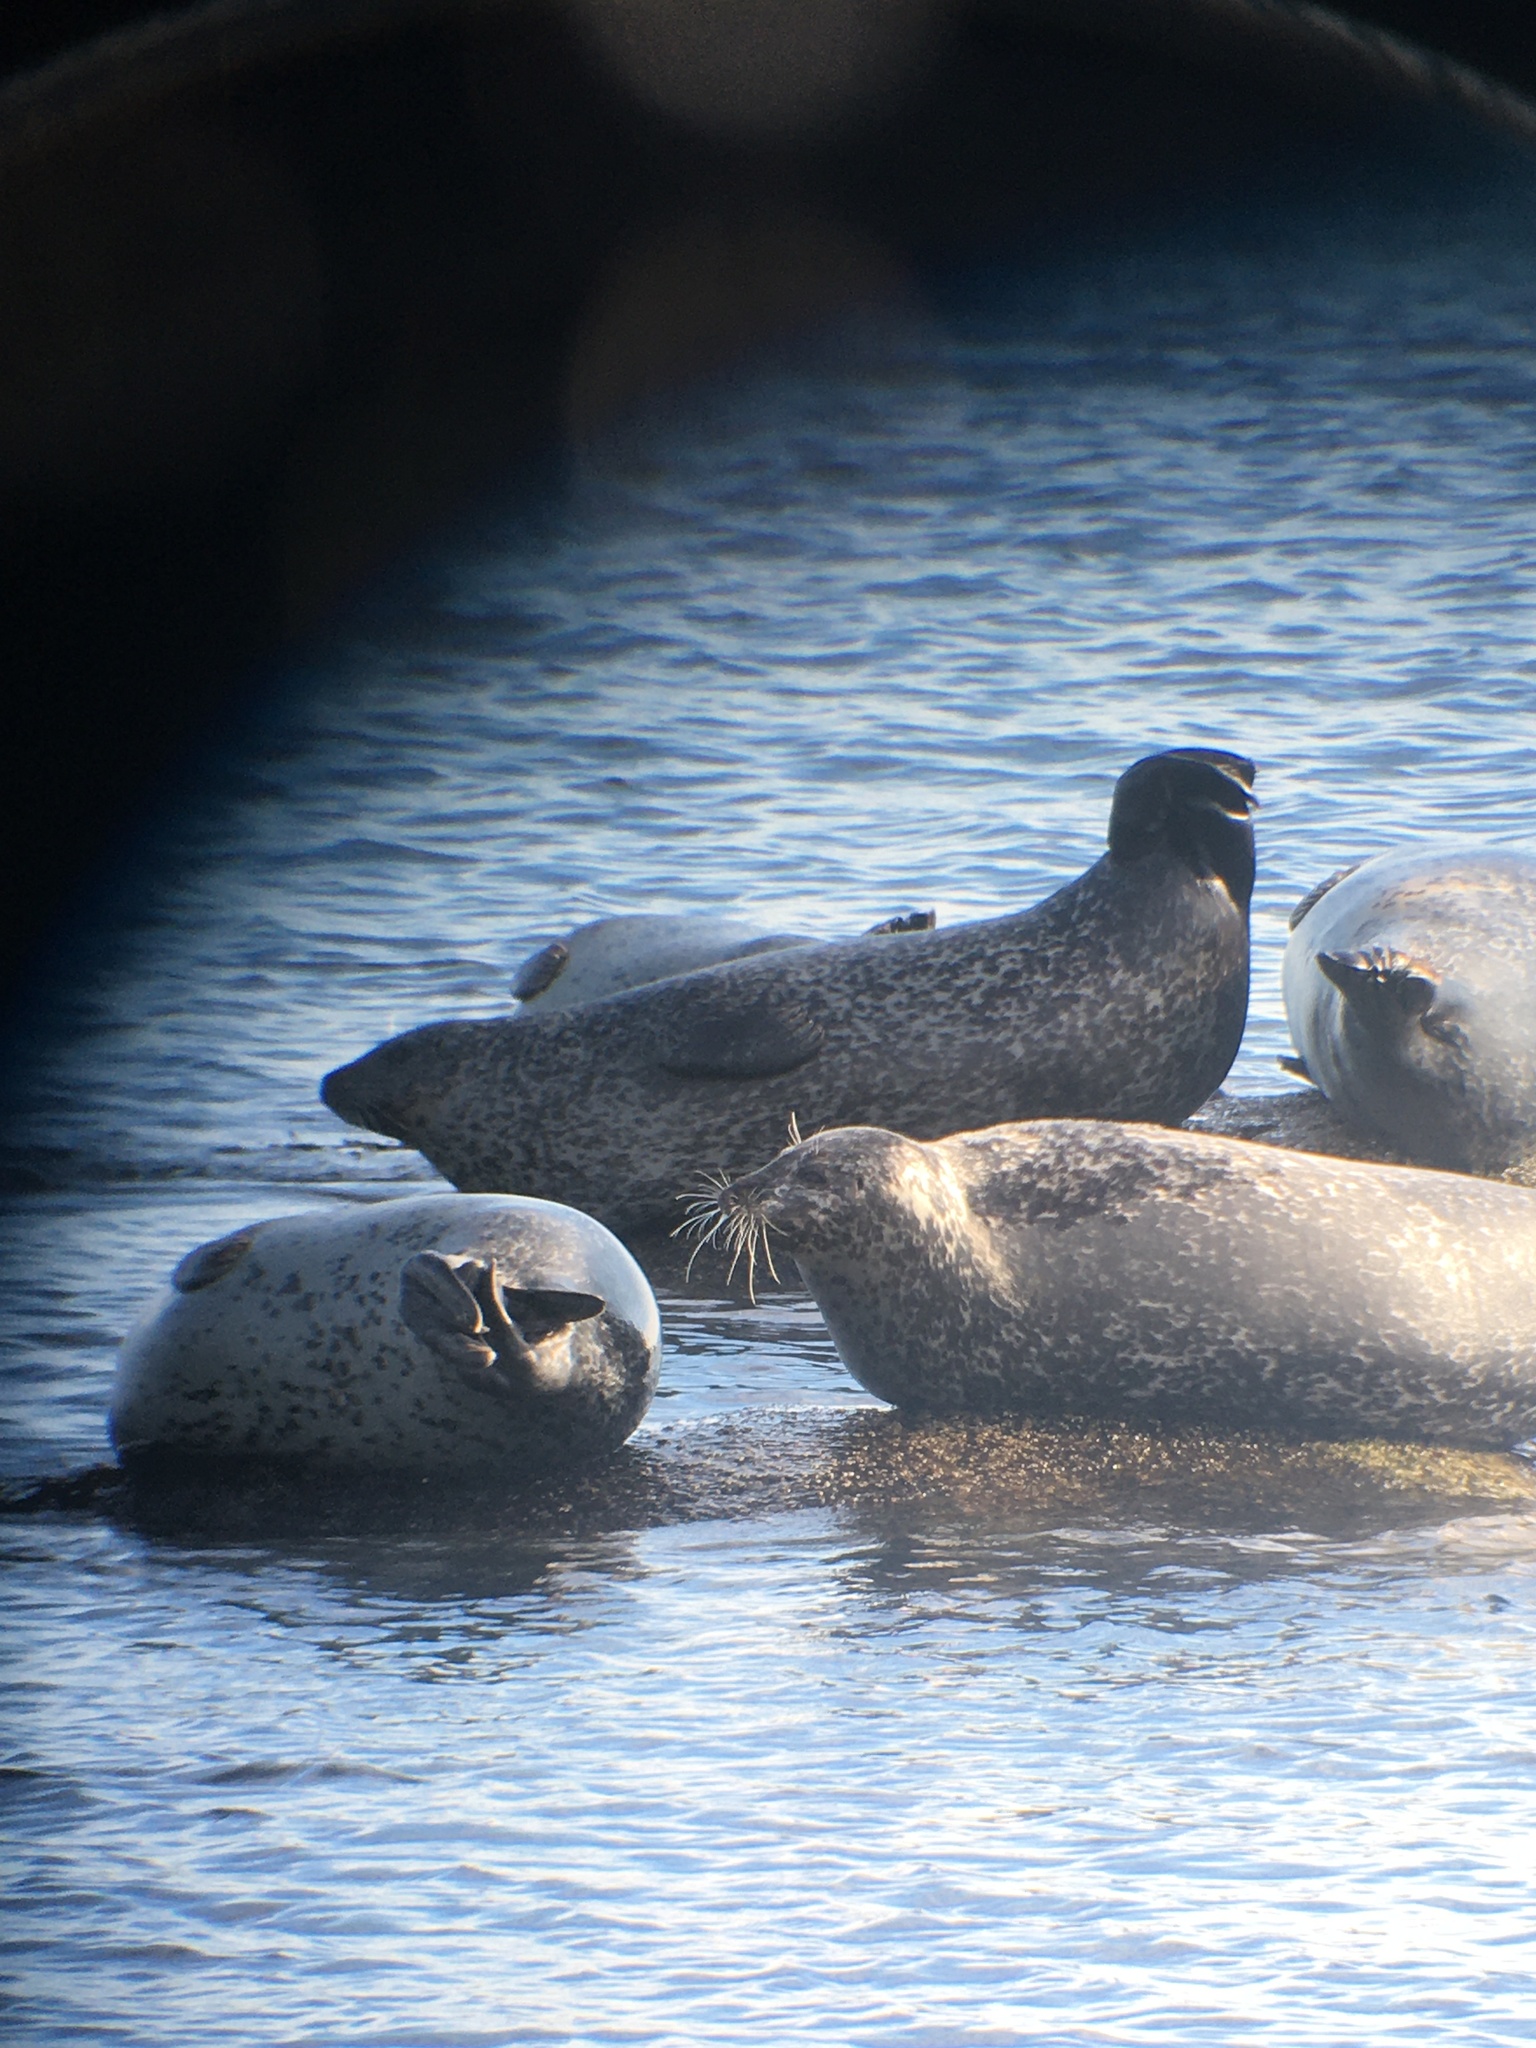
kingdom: Animalia
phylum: Chordata
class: Mammalia
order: Carnivora
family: Phocidae
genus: Phoca
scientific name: Phoca vitulina
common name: Harbor seal
